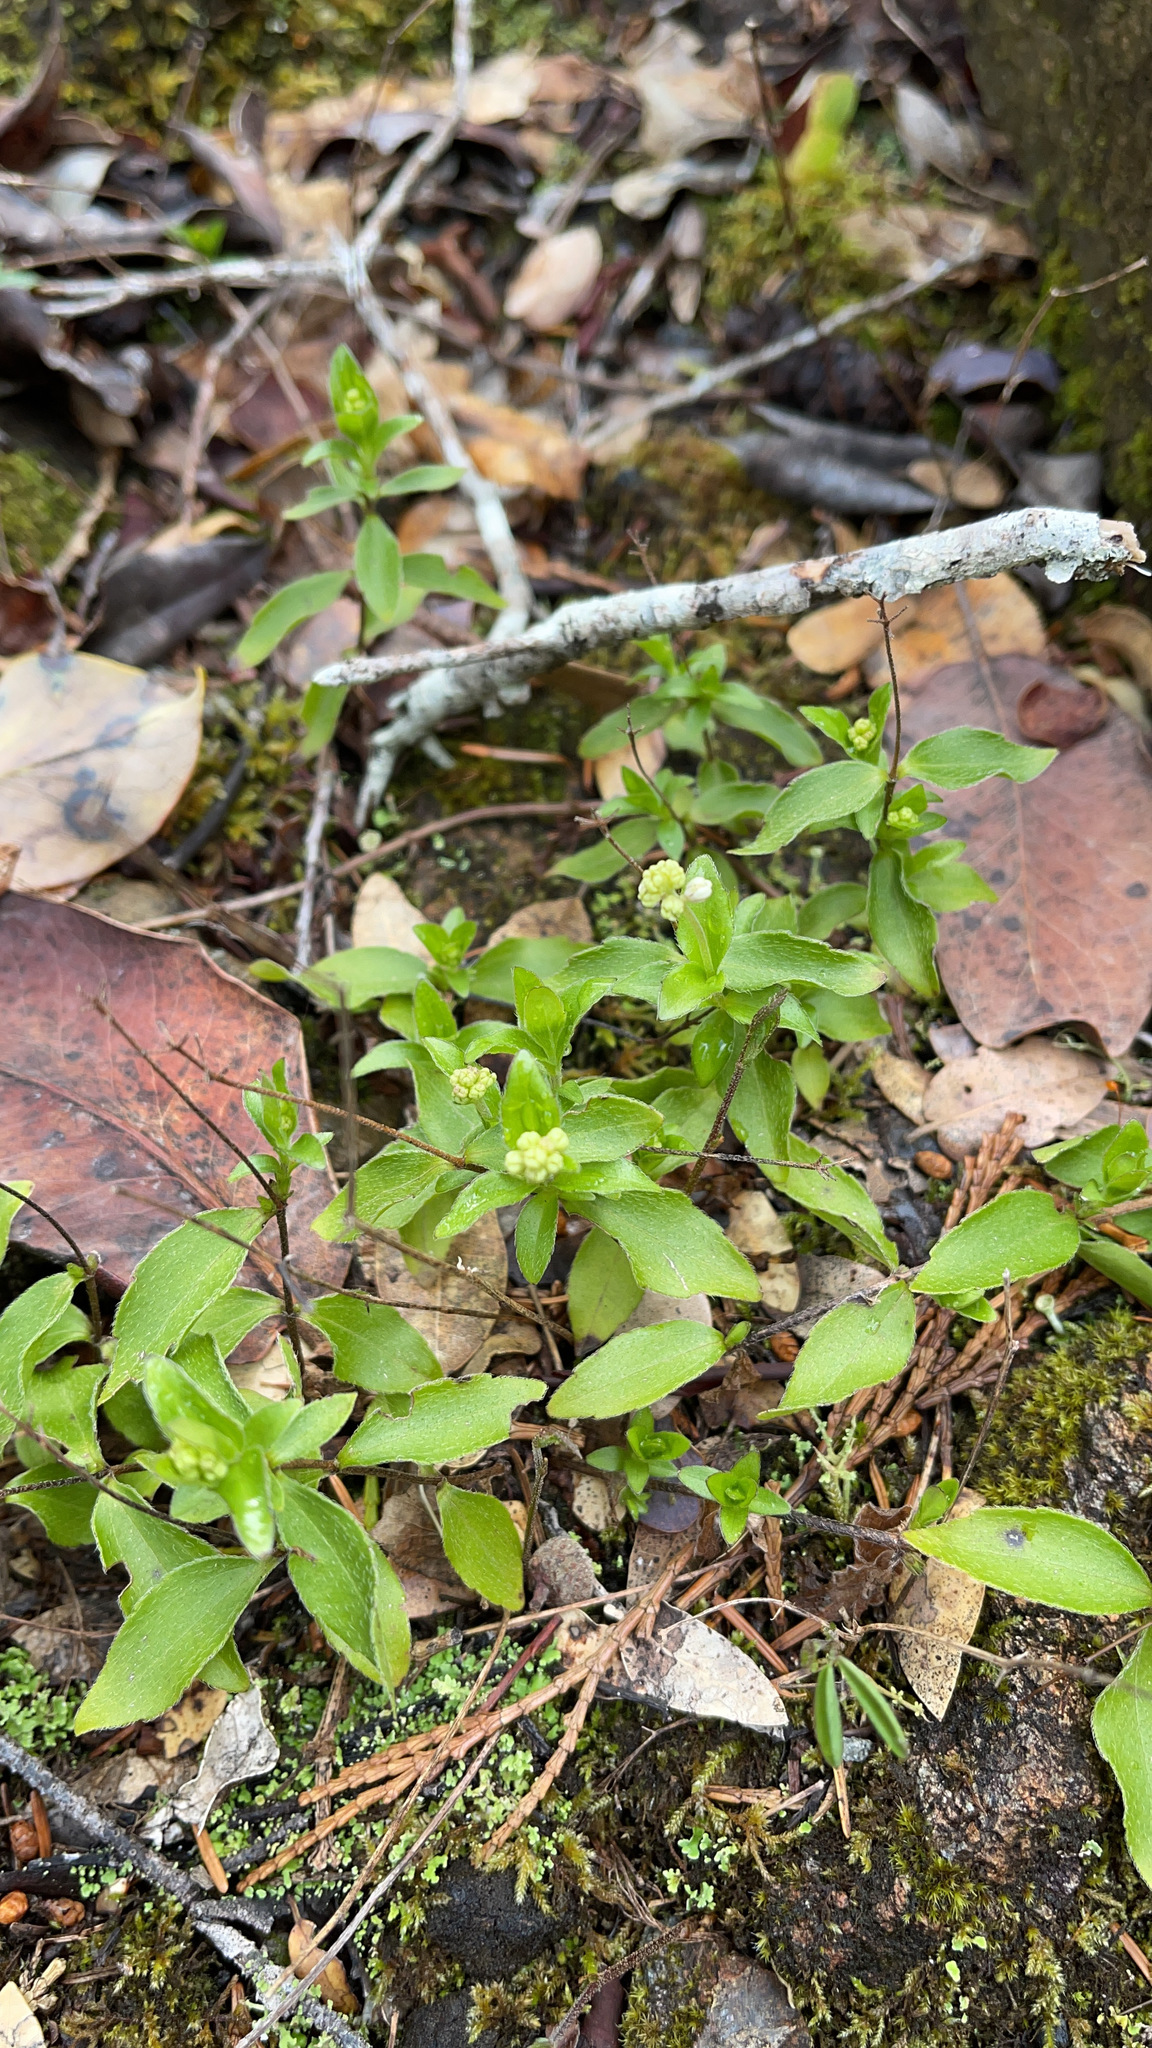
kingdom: Plantae
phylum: Tracheophyta
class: Magnoliopsida
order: Cornales
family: Hydrangeaceae
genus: Whipplea
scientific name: Whipplea modesta
